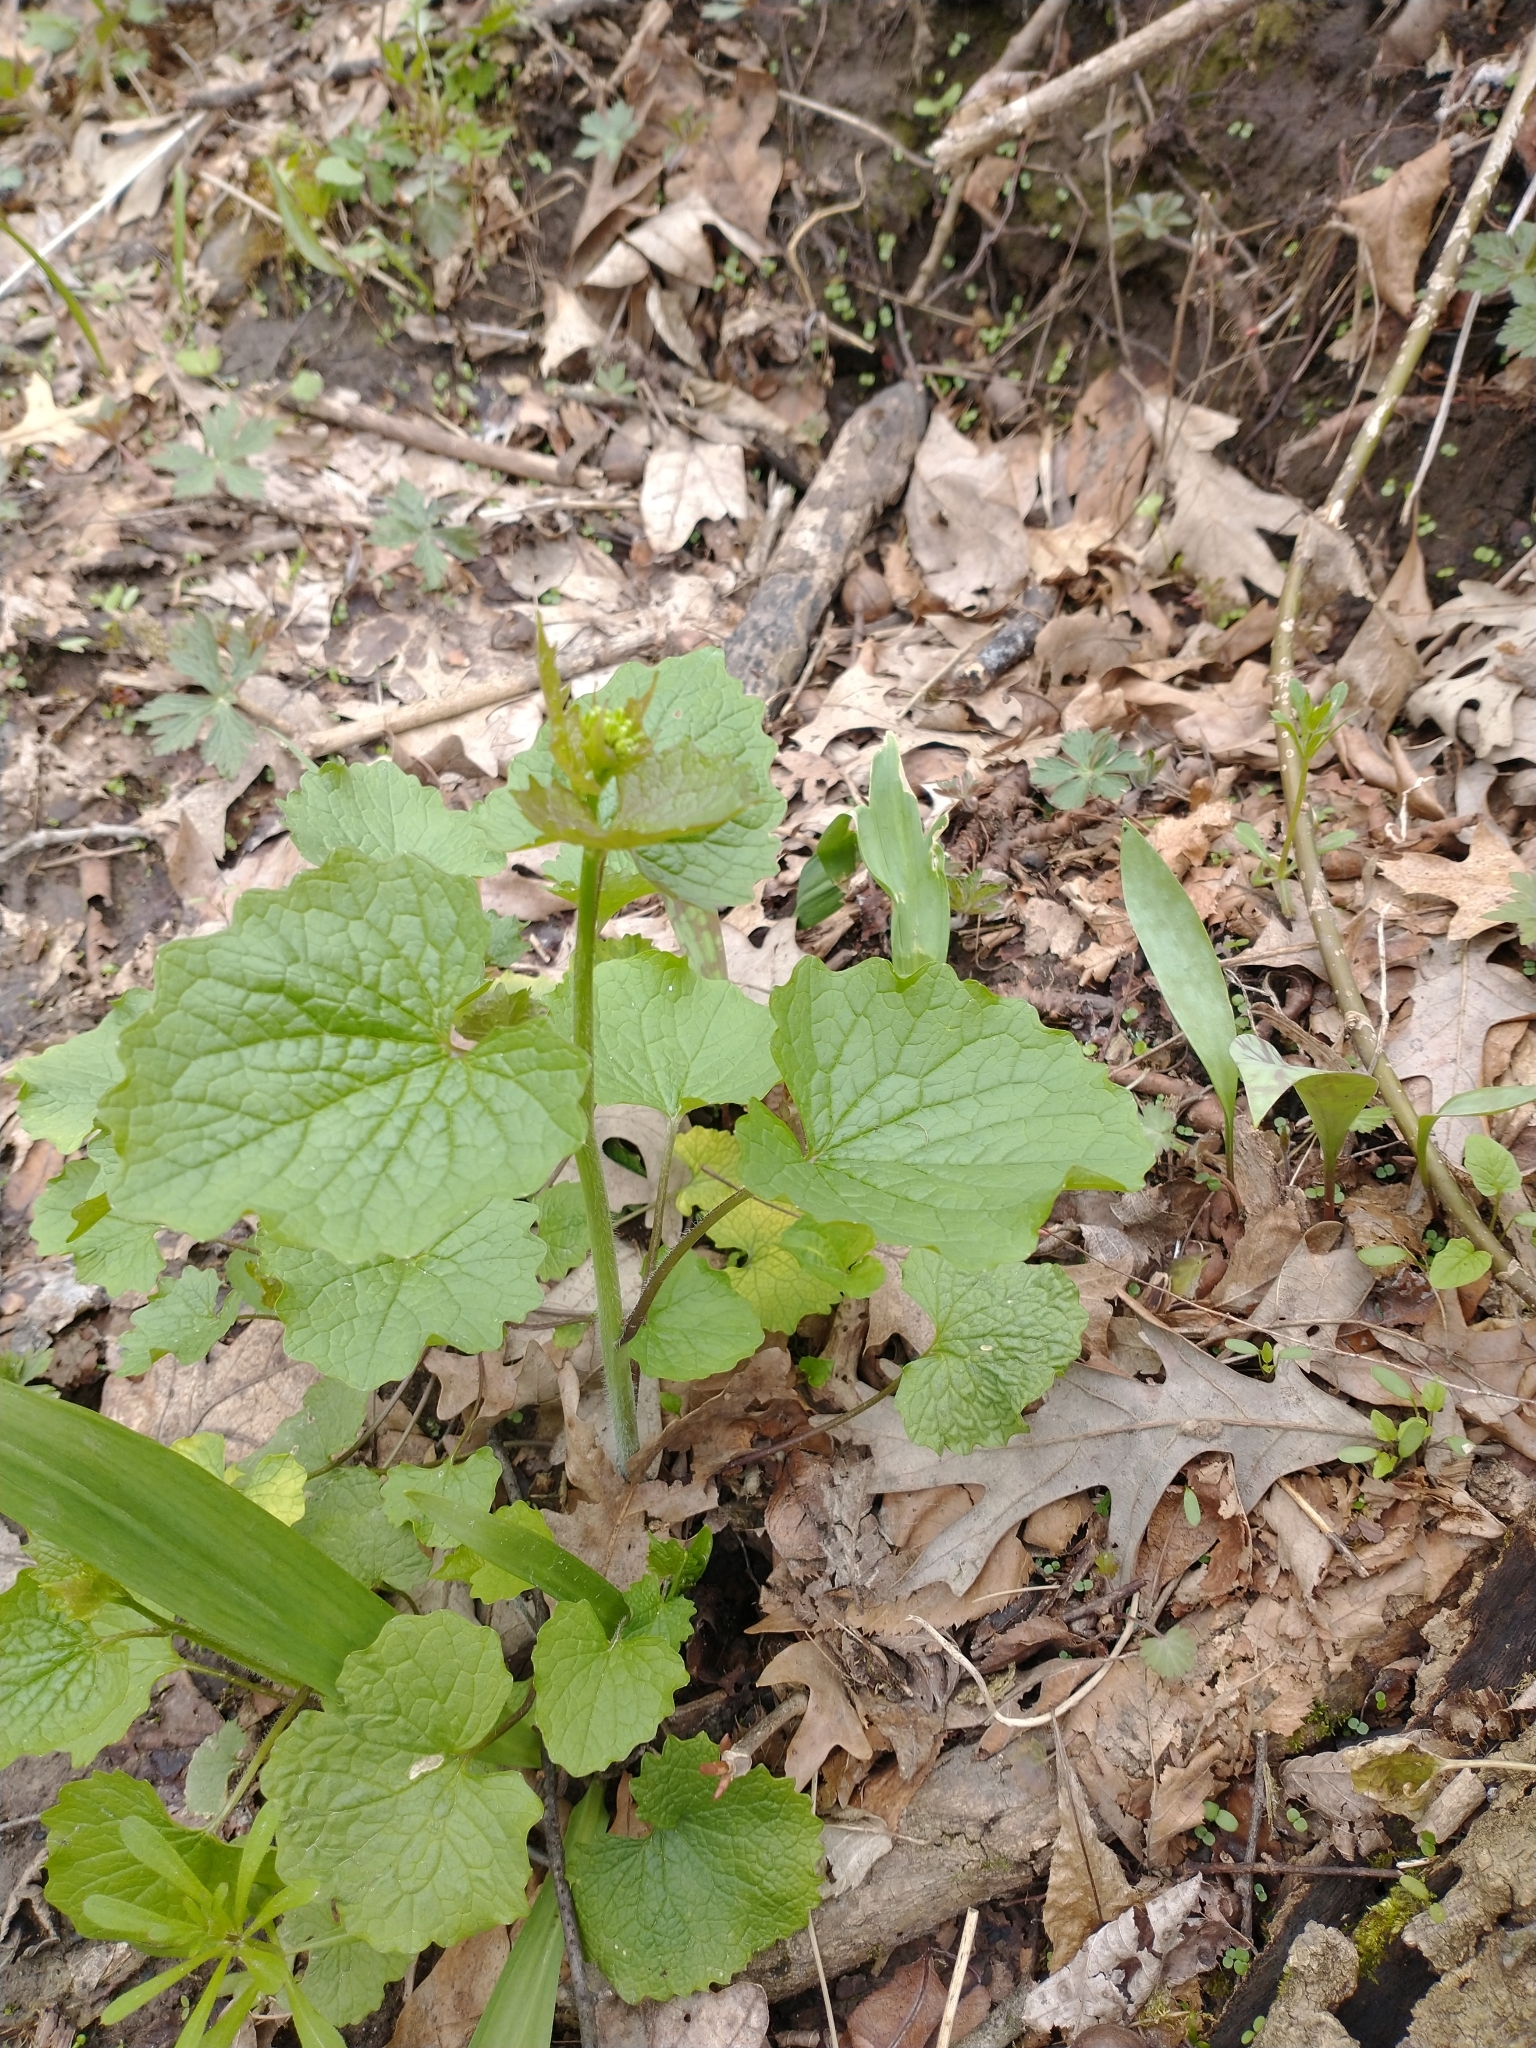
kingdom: Plantae
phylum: Tracheophyta
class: Magnoliopsida
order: Brassicales
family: Brassicaceae
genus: Alliaria
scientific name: Alliaria petiolata
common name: Garlic mustard
